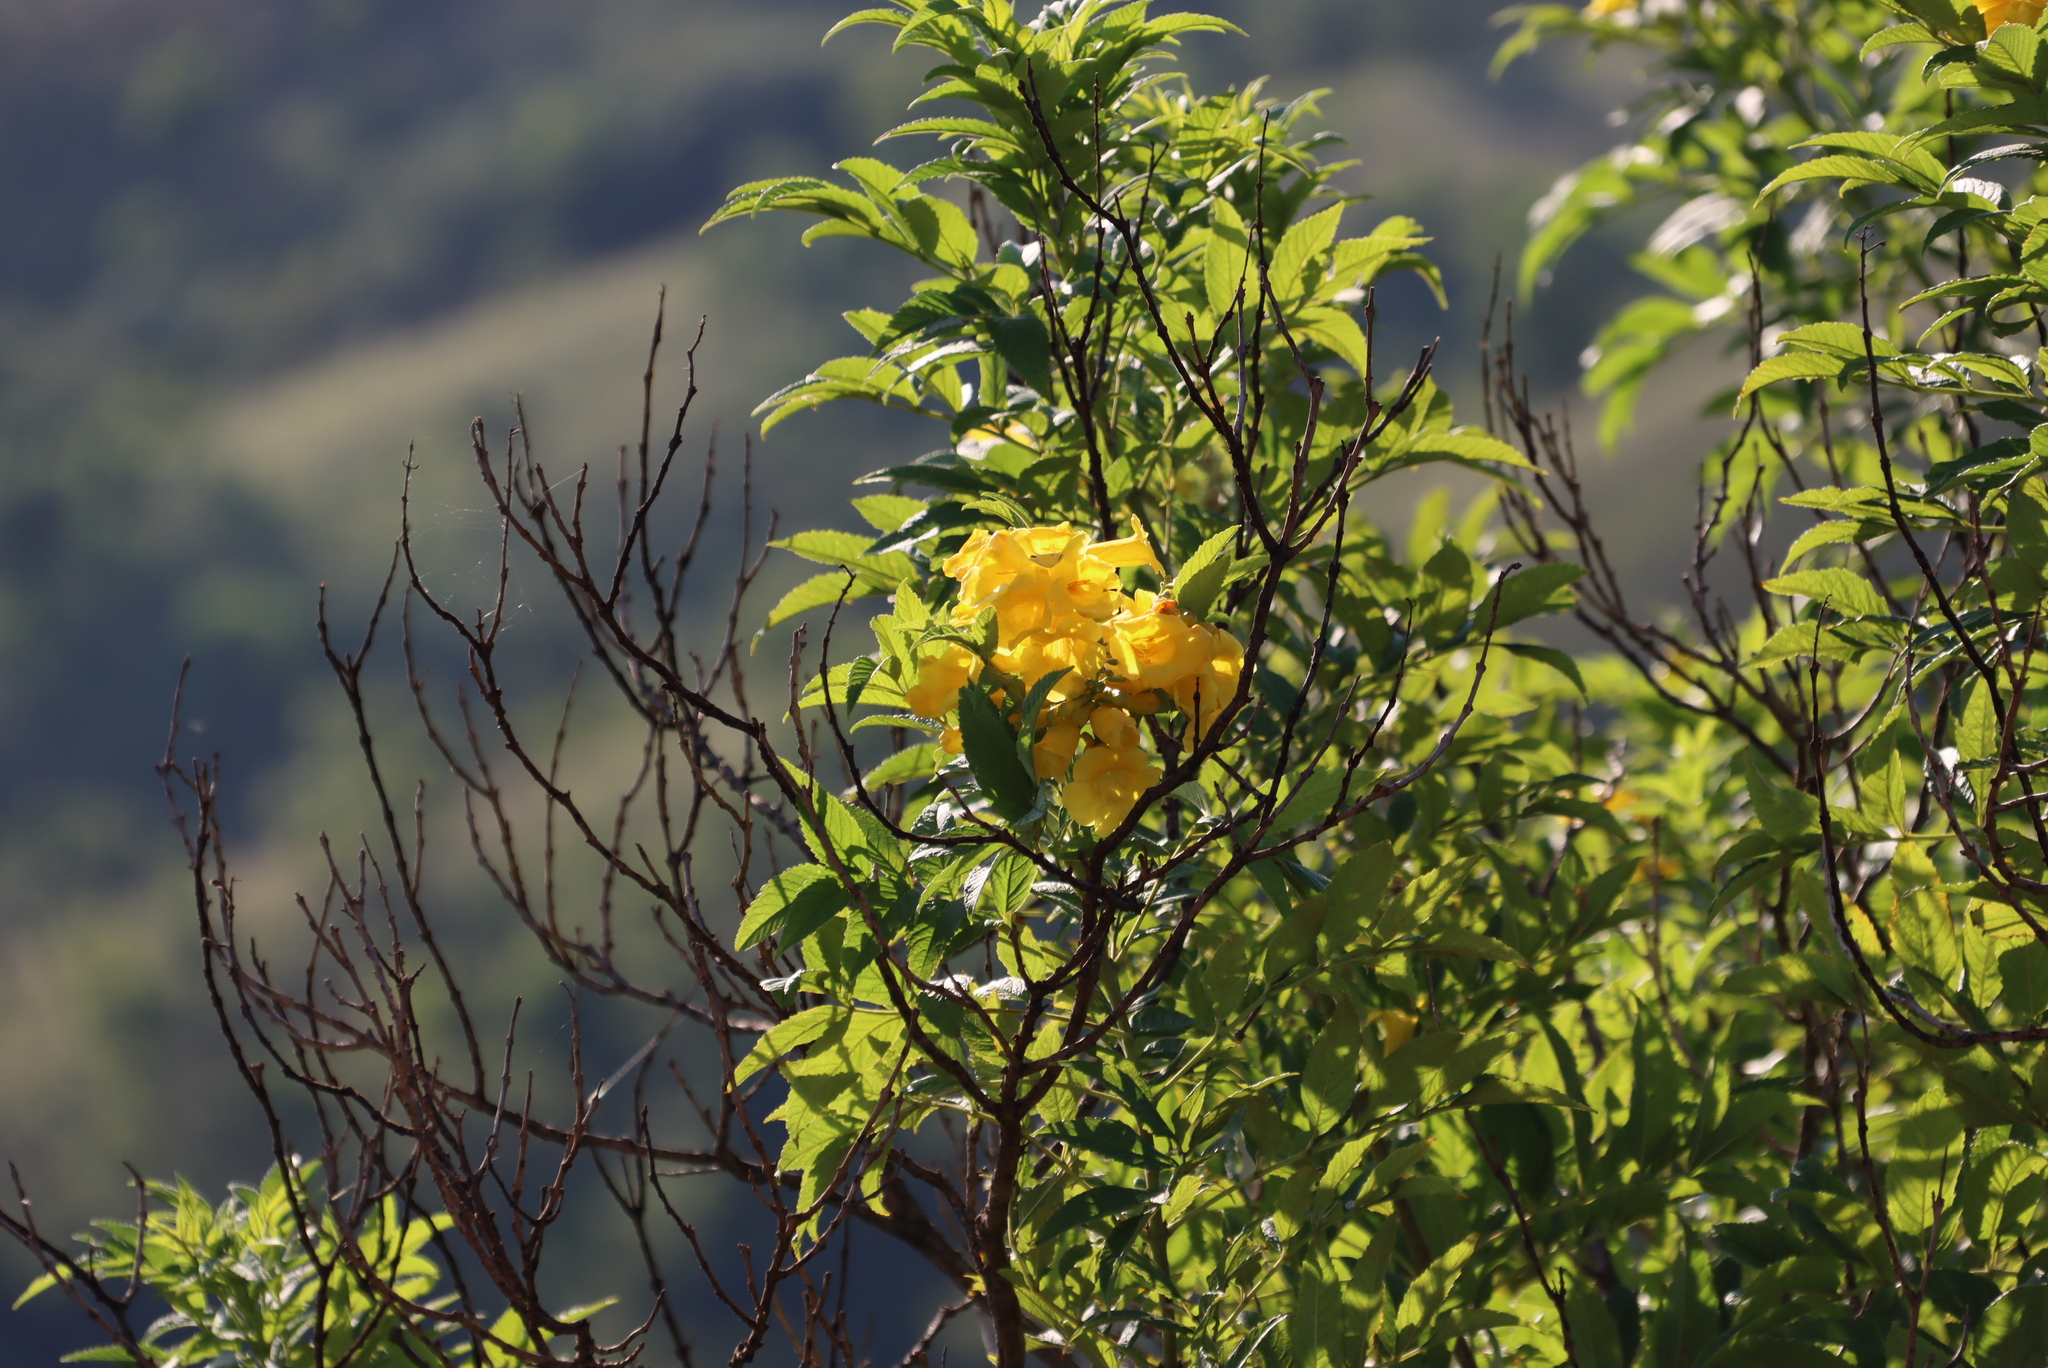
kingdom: Plantae
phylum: Tracheophyta
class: Magnoliopsida
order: Lamiales
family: Bignoniaceae
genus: Tecoma
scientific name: Tecoma stans
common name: Yellow trumpetbush
